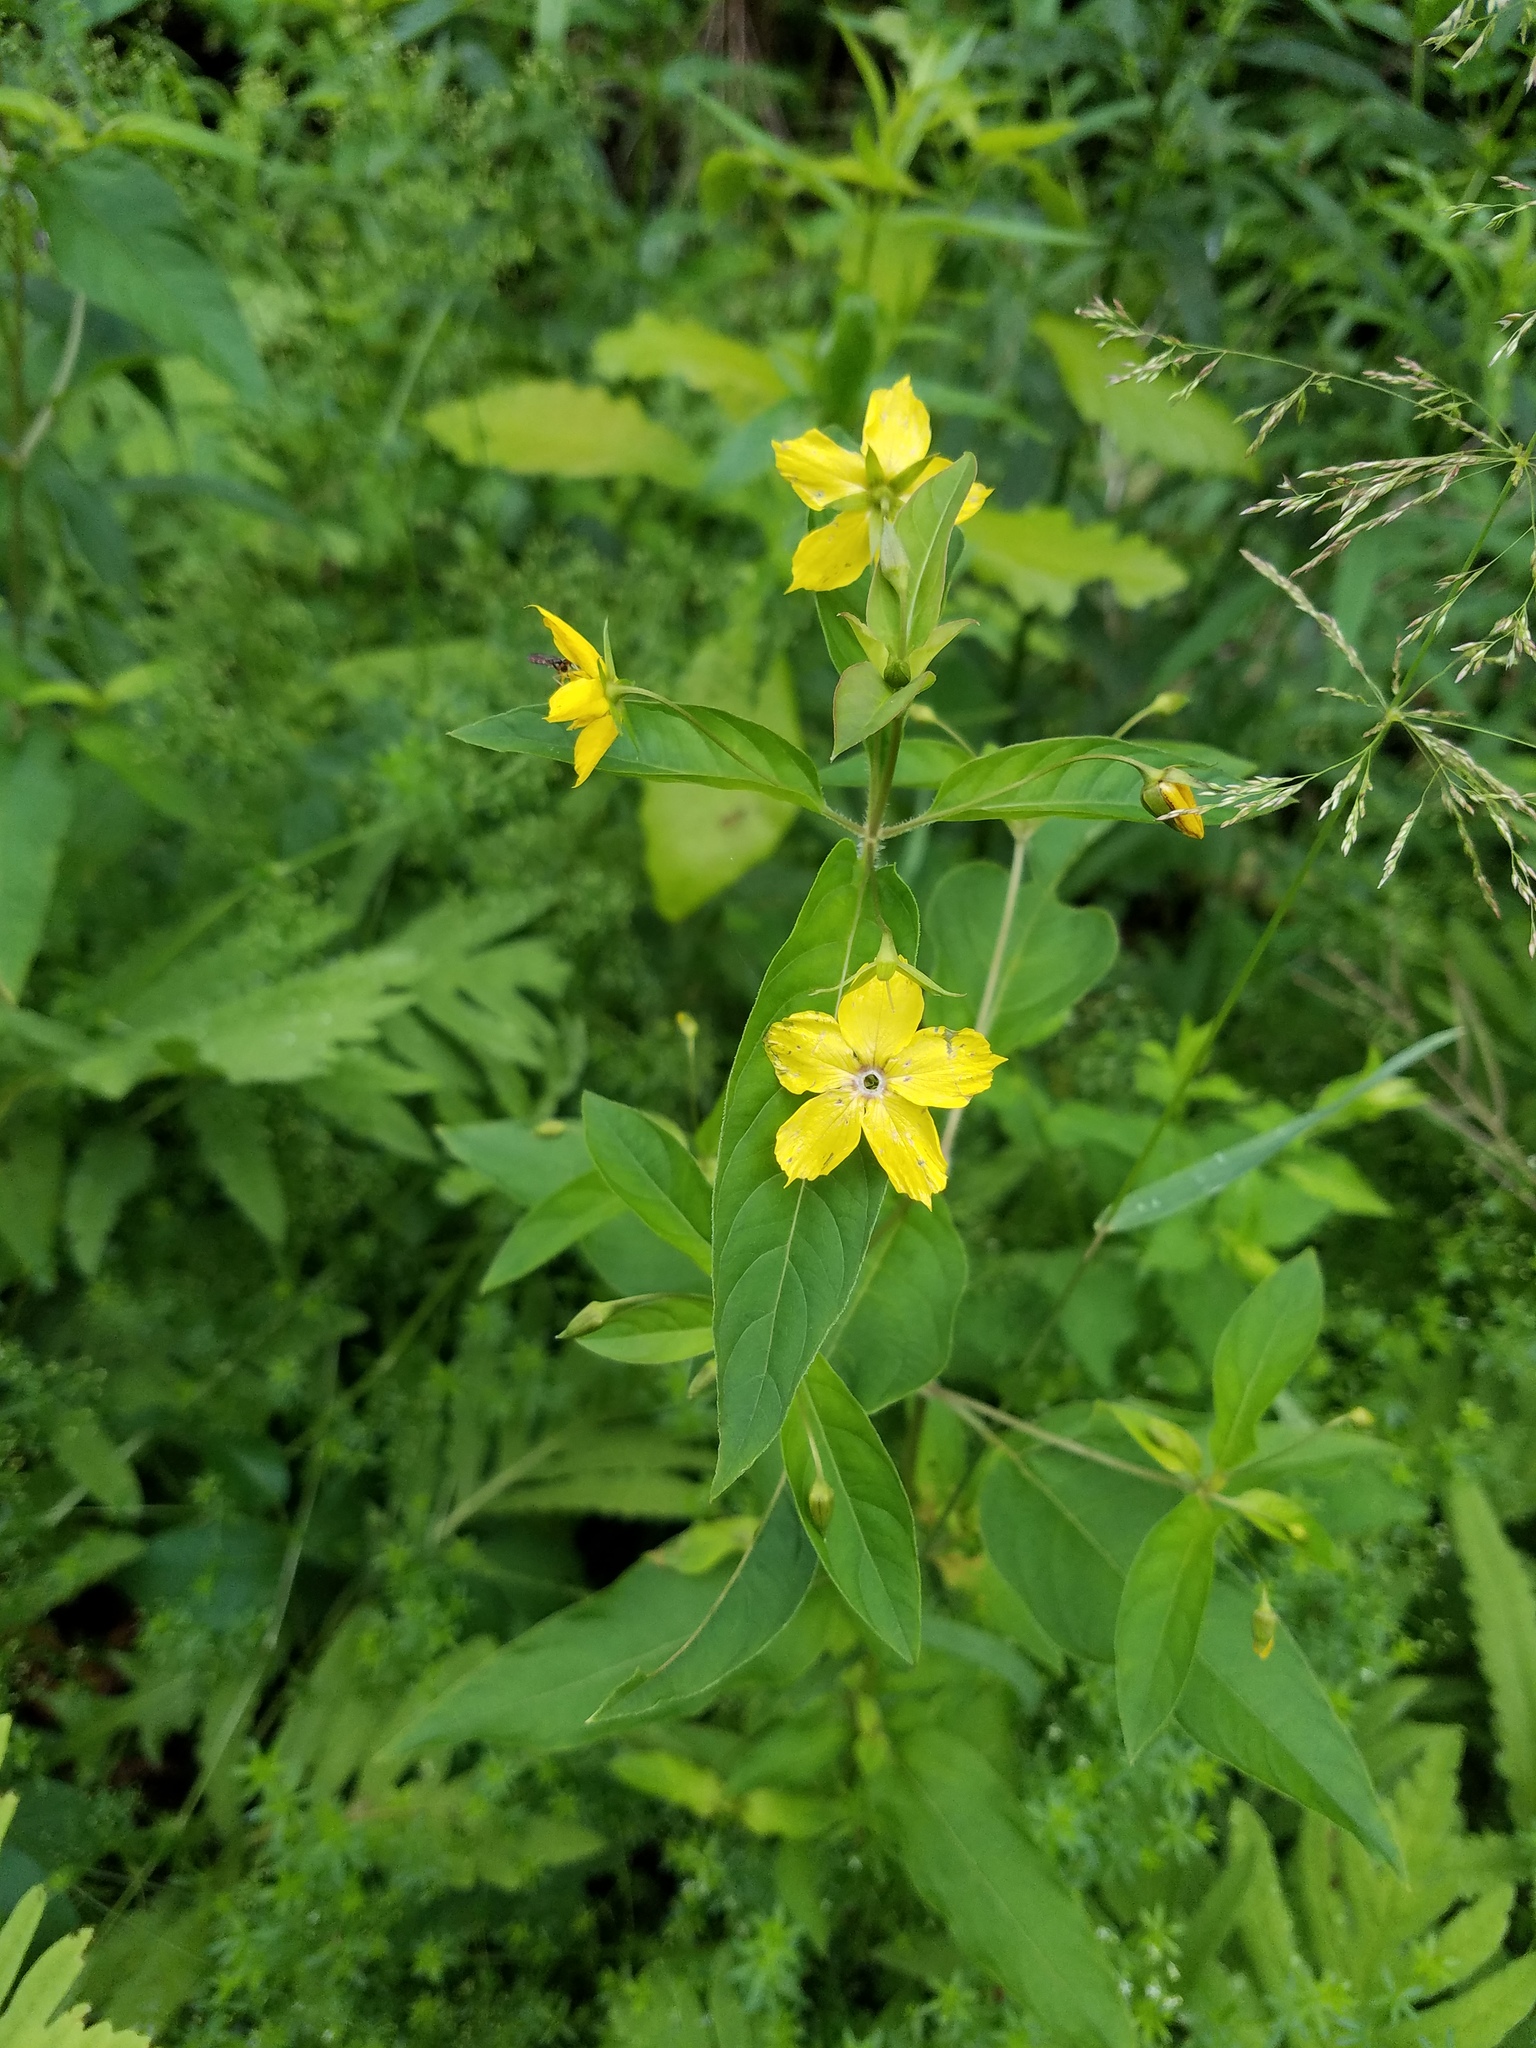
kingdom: Plantae
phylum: Tracheophyta
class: Magnoliopsida
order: Ericales
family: Primulaceae
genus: Lysimachia
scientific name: Lysimachia ciliata
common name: Fringed loosestrife
